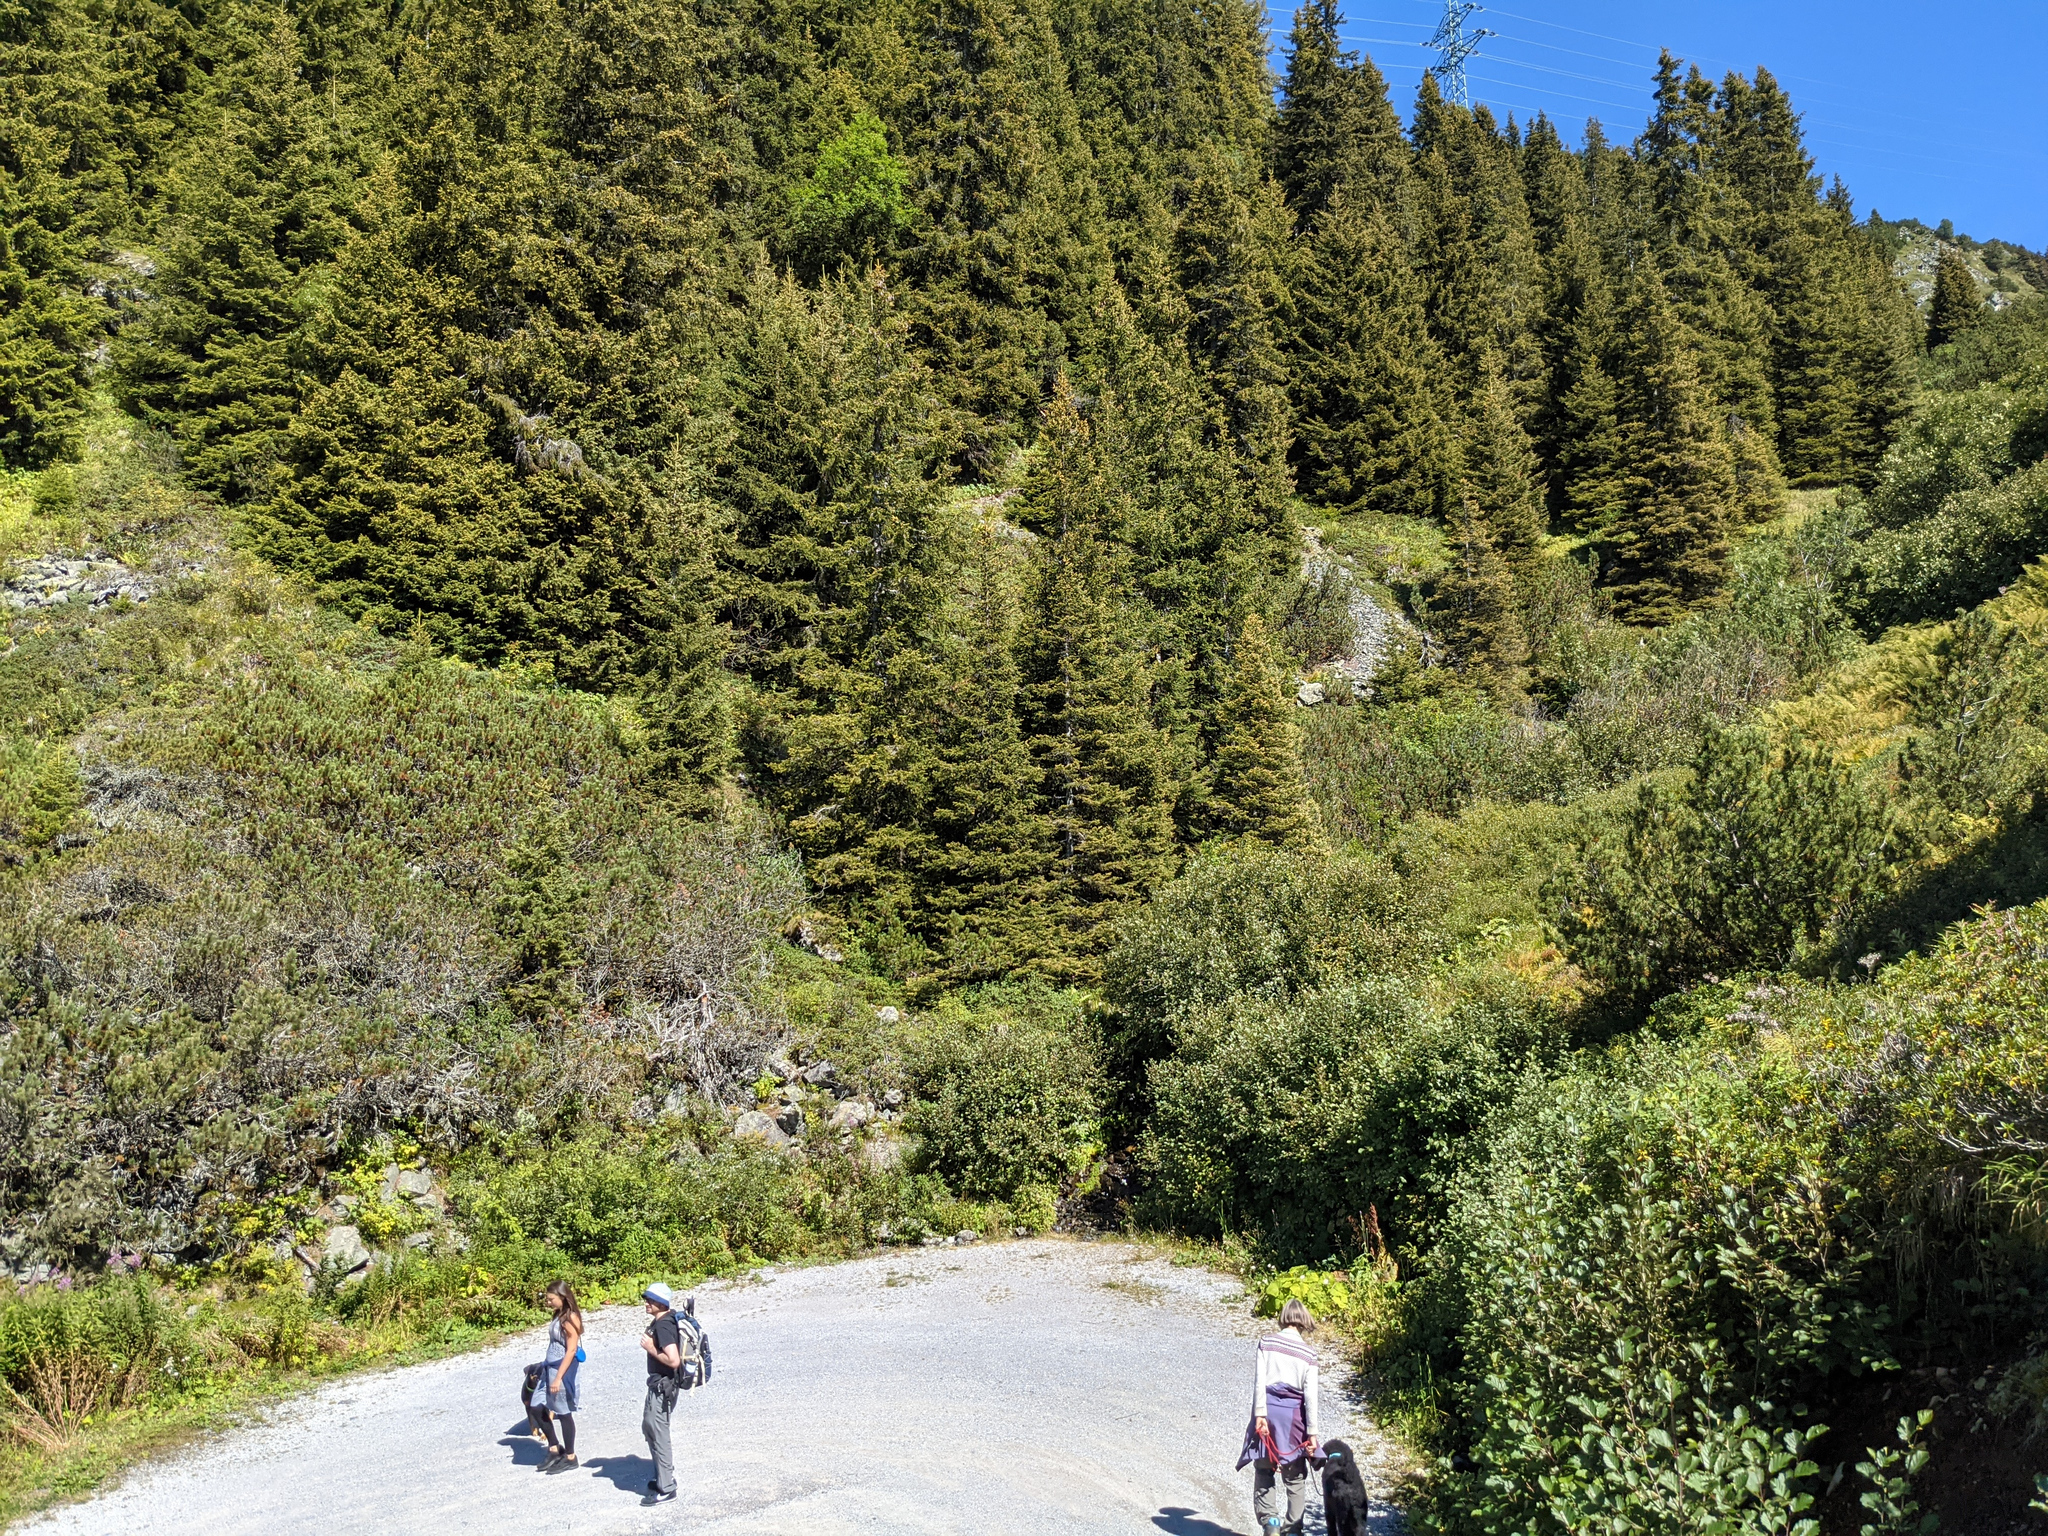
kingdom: Plantae
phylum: Tracheophyta
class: Pinopsida
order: Pinales
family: Pinaceae
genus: Picea
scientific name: Picea abies
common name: Norway spruce
